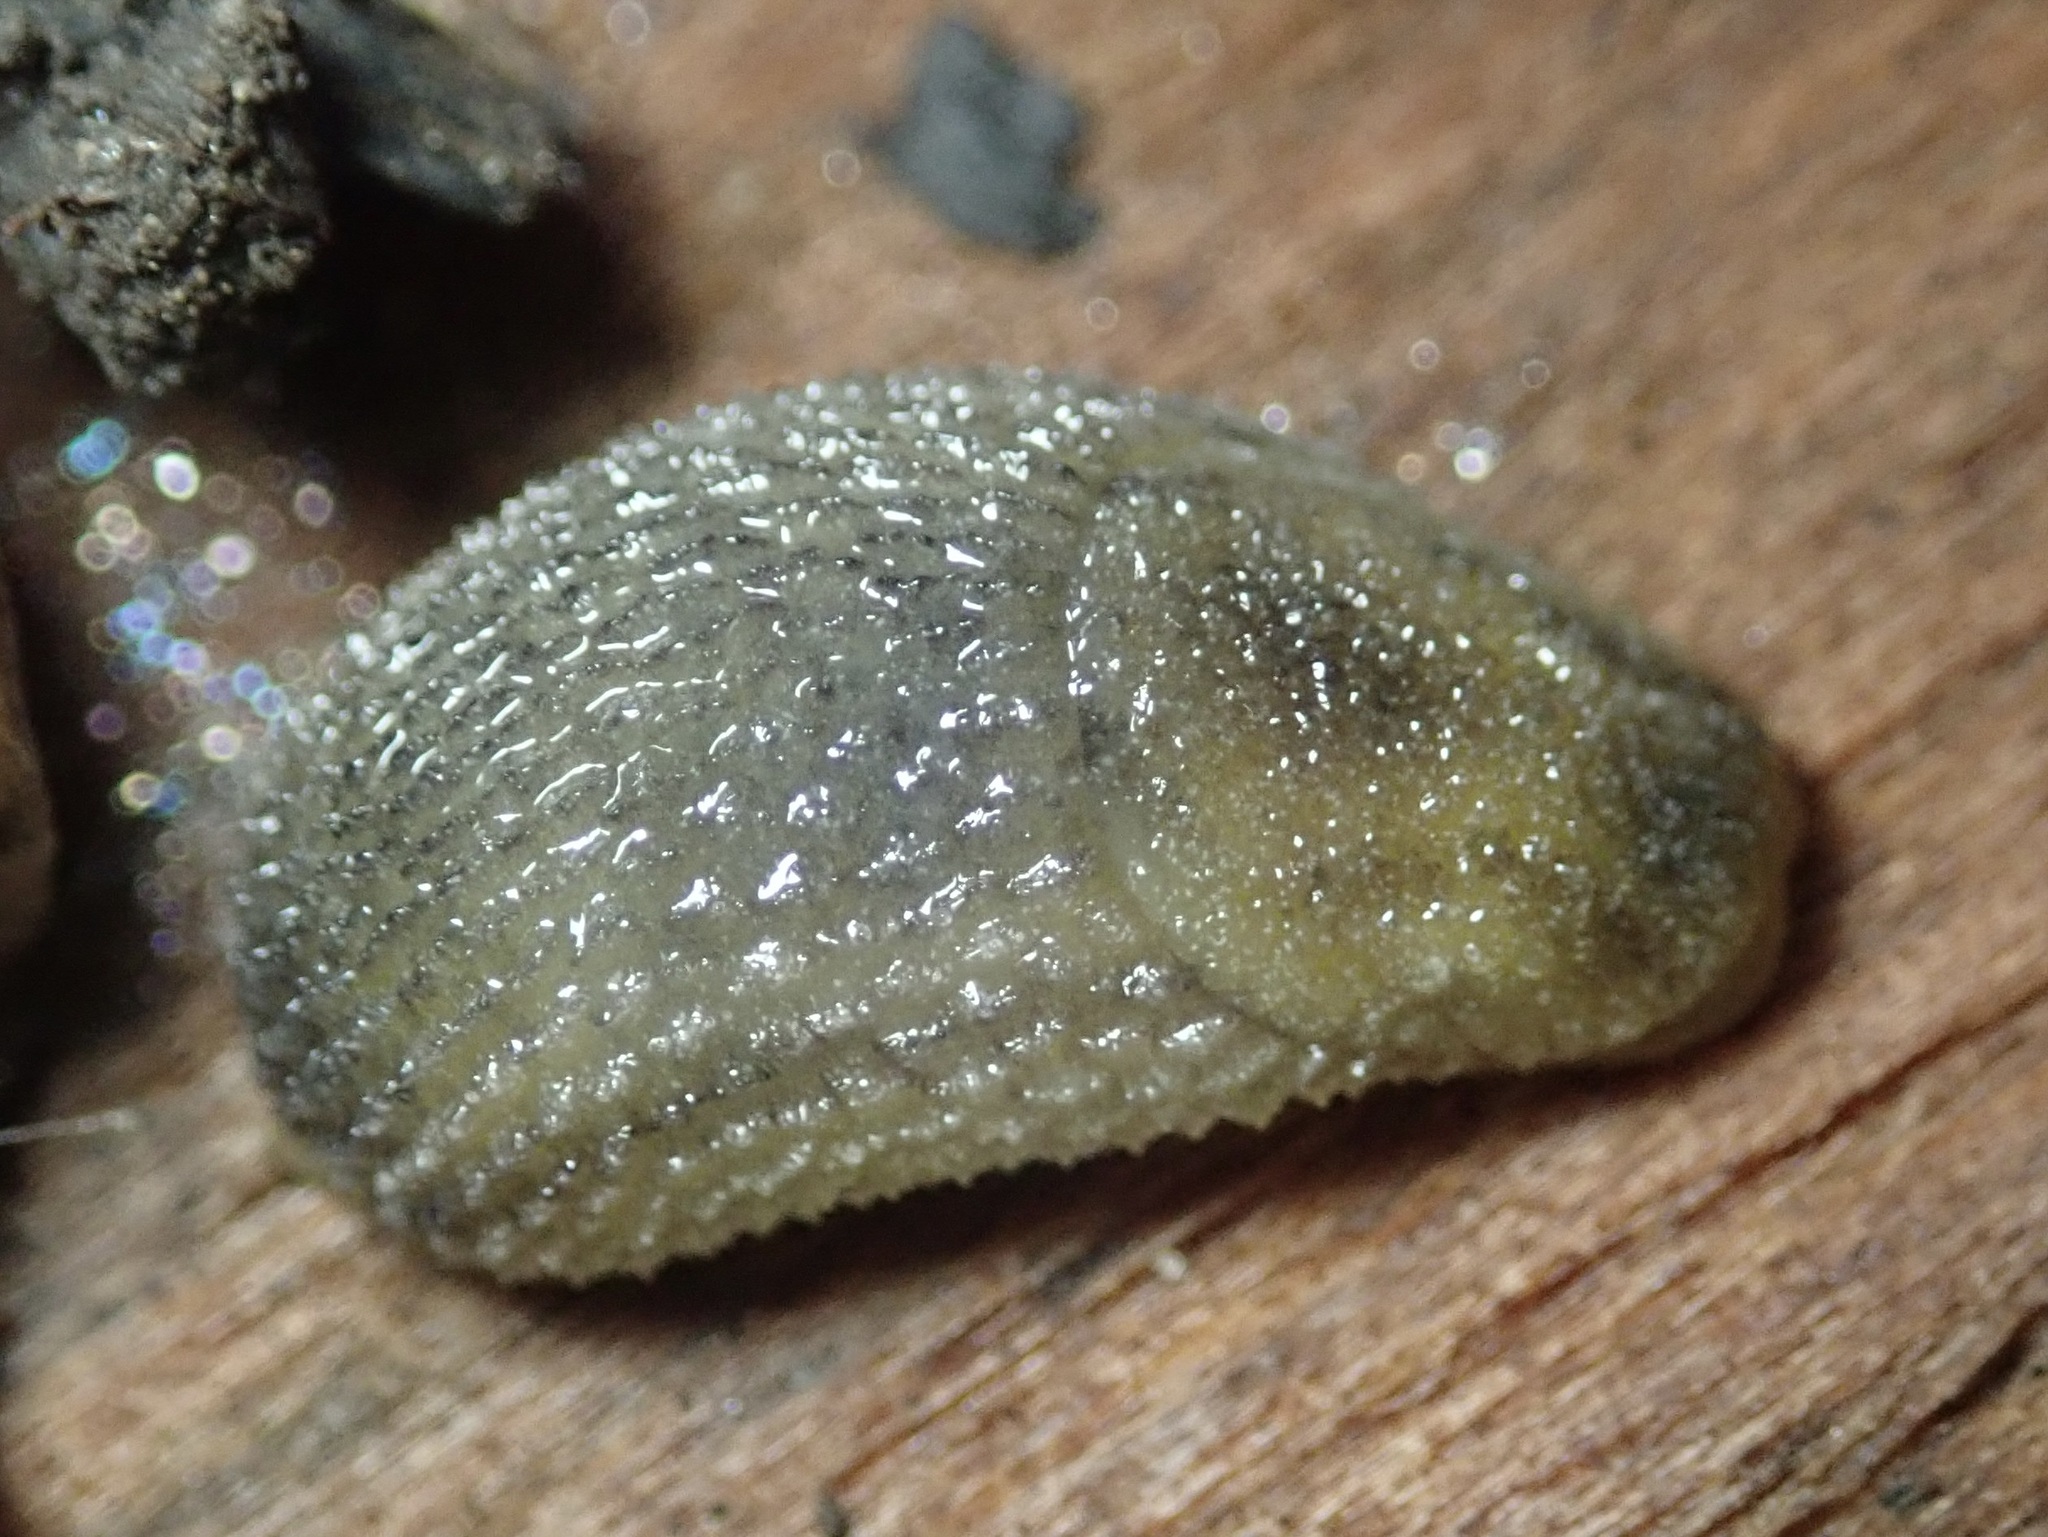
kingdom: Animalia
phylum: Mollusca
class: Gastropoda
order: Stylommatophora
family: Arionidae
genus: Arion
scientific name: Arion intermedius
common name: Hedgehog slug
